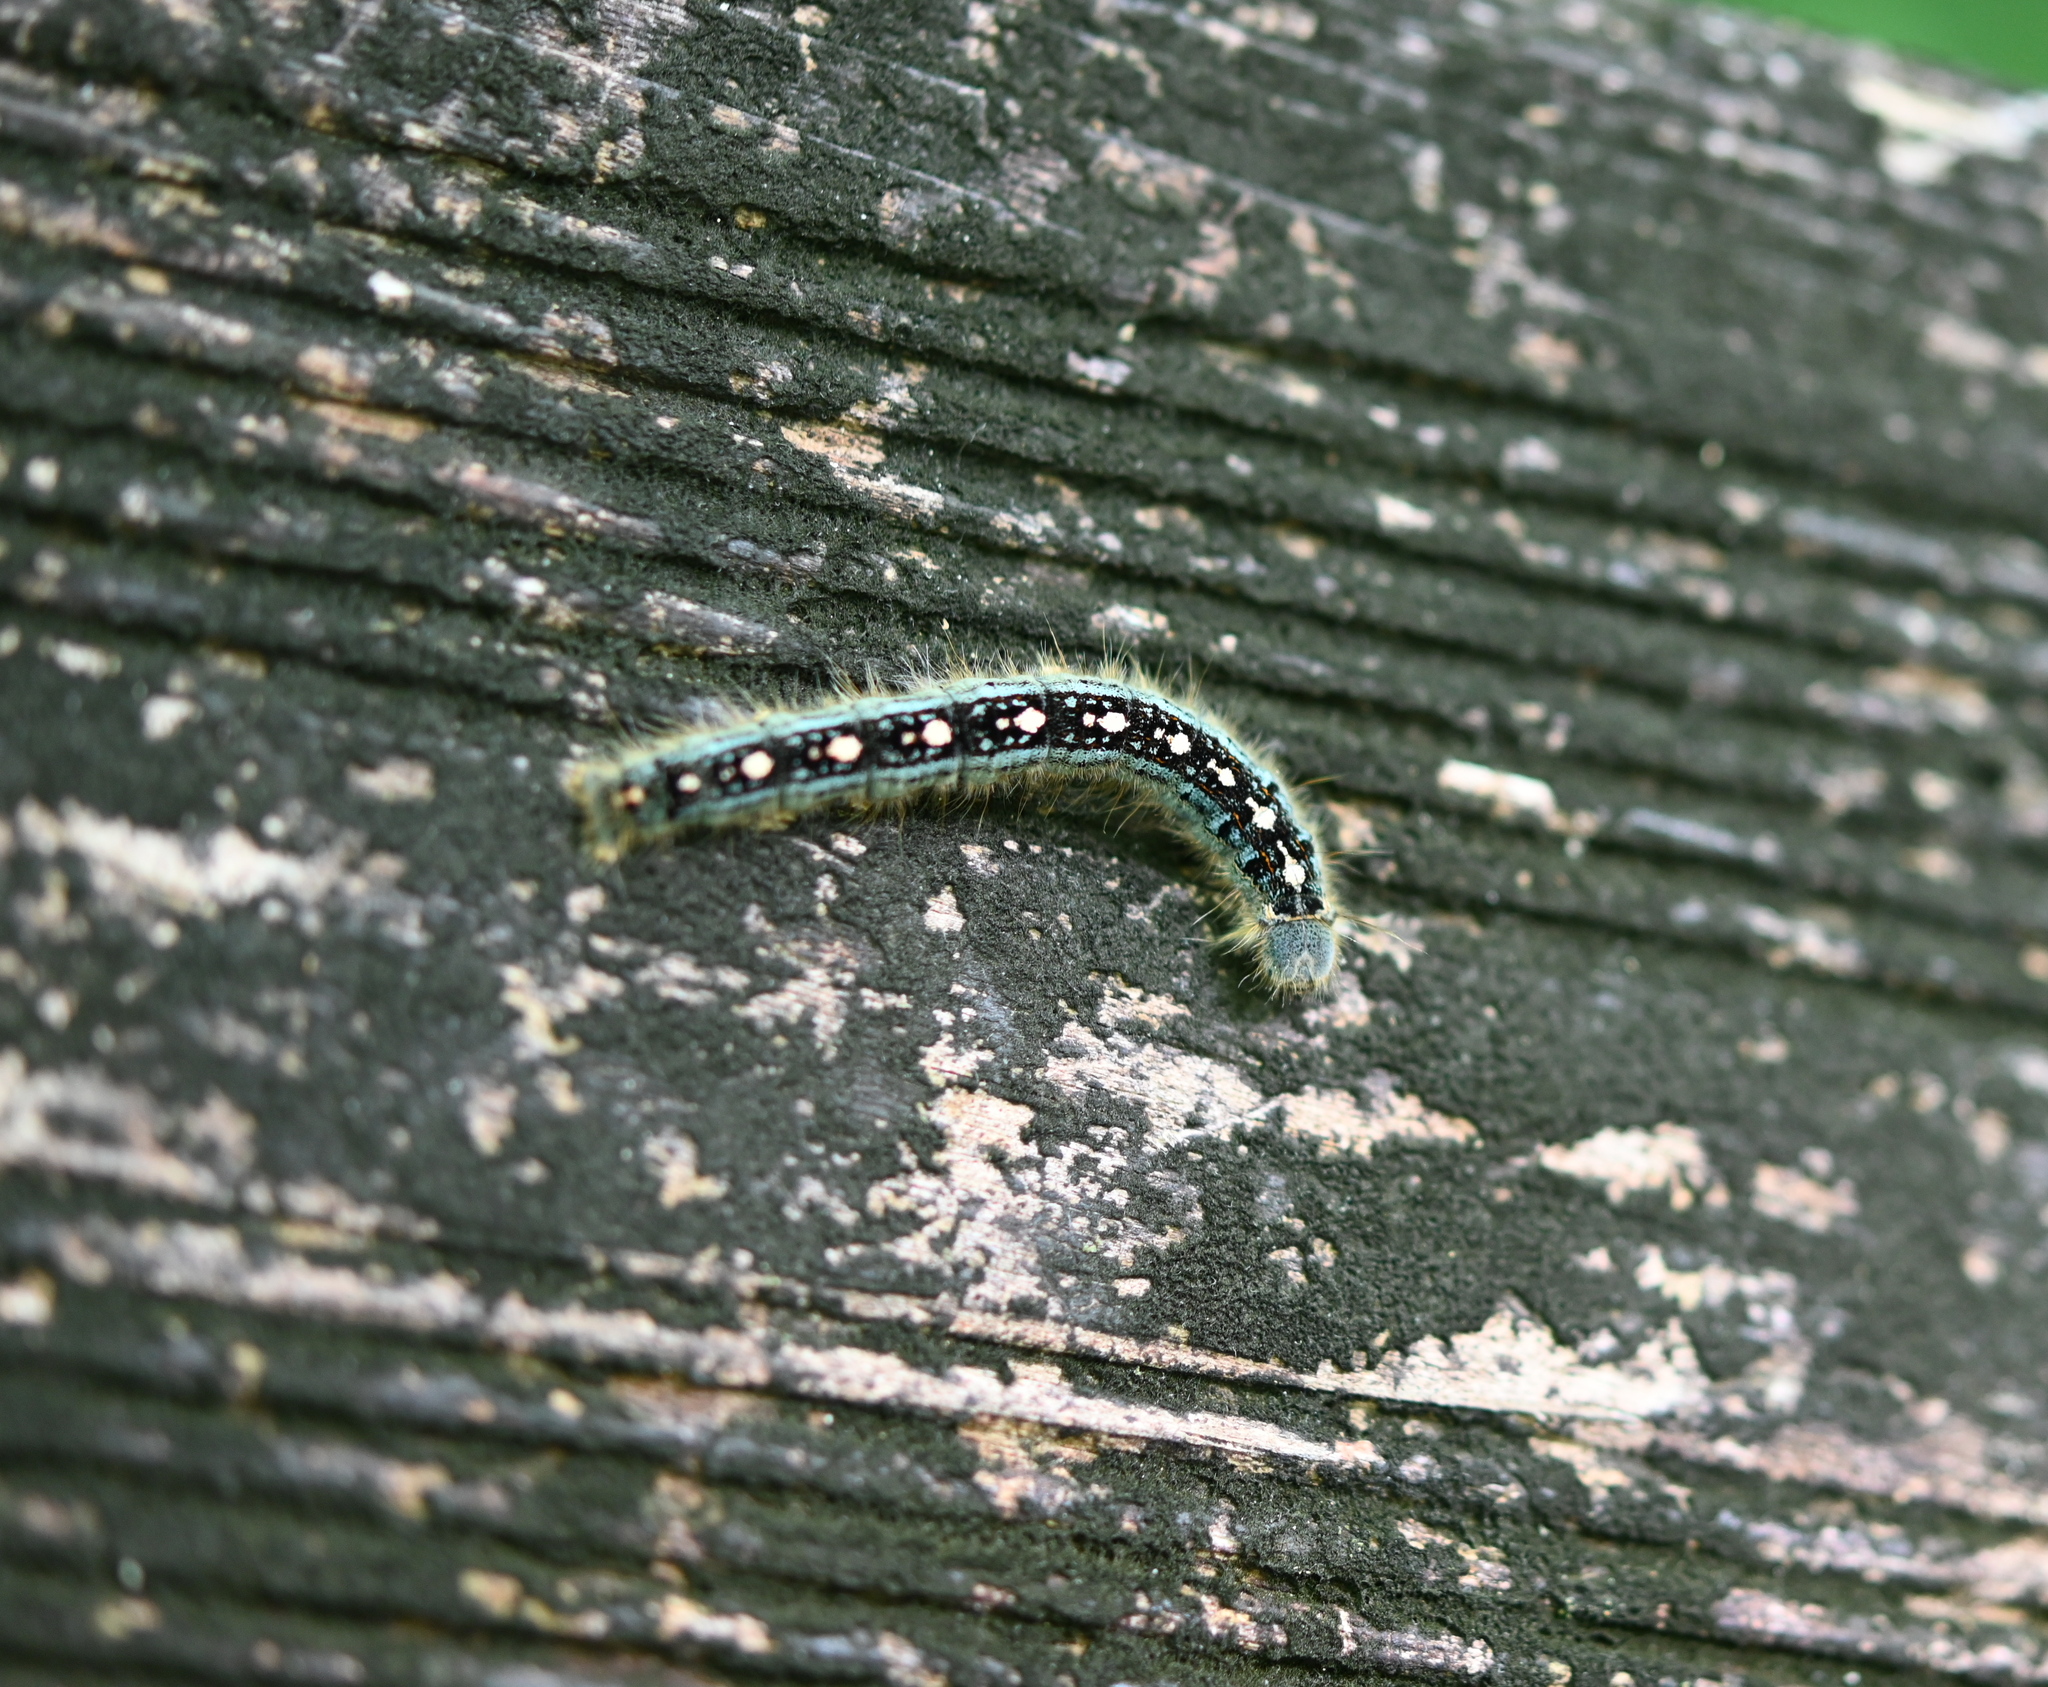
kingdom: Animalia
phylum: Arthropoda
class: Insecta
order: Lepidoptera
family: Lasiocampidae
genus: Malacosoma
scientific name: Malacosoma disstria
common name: Forest tent caterpillar
